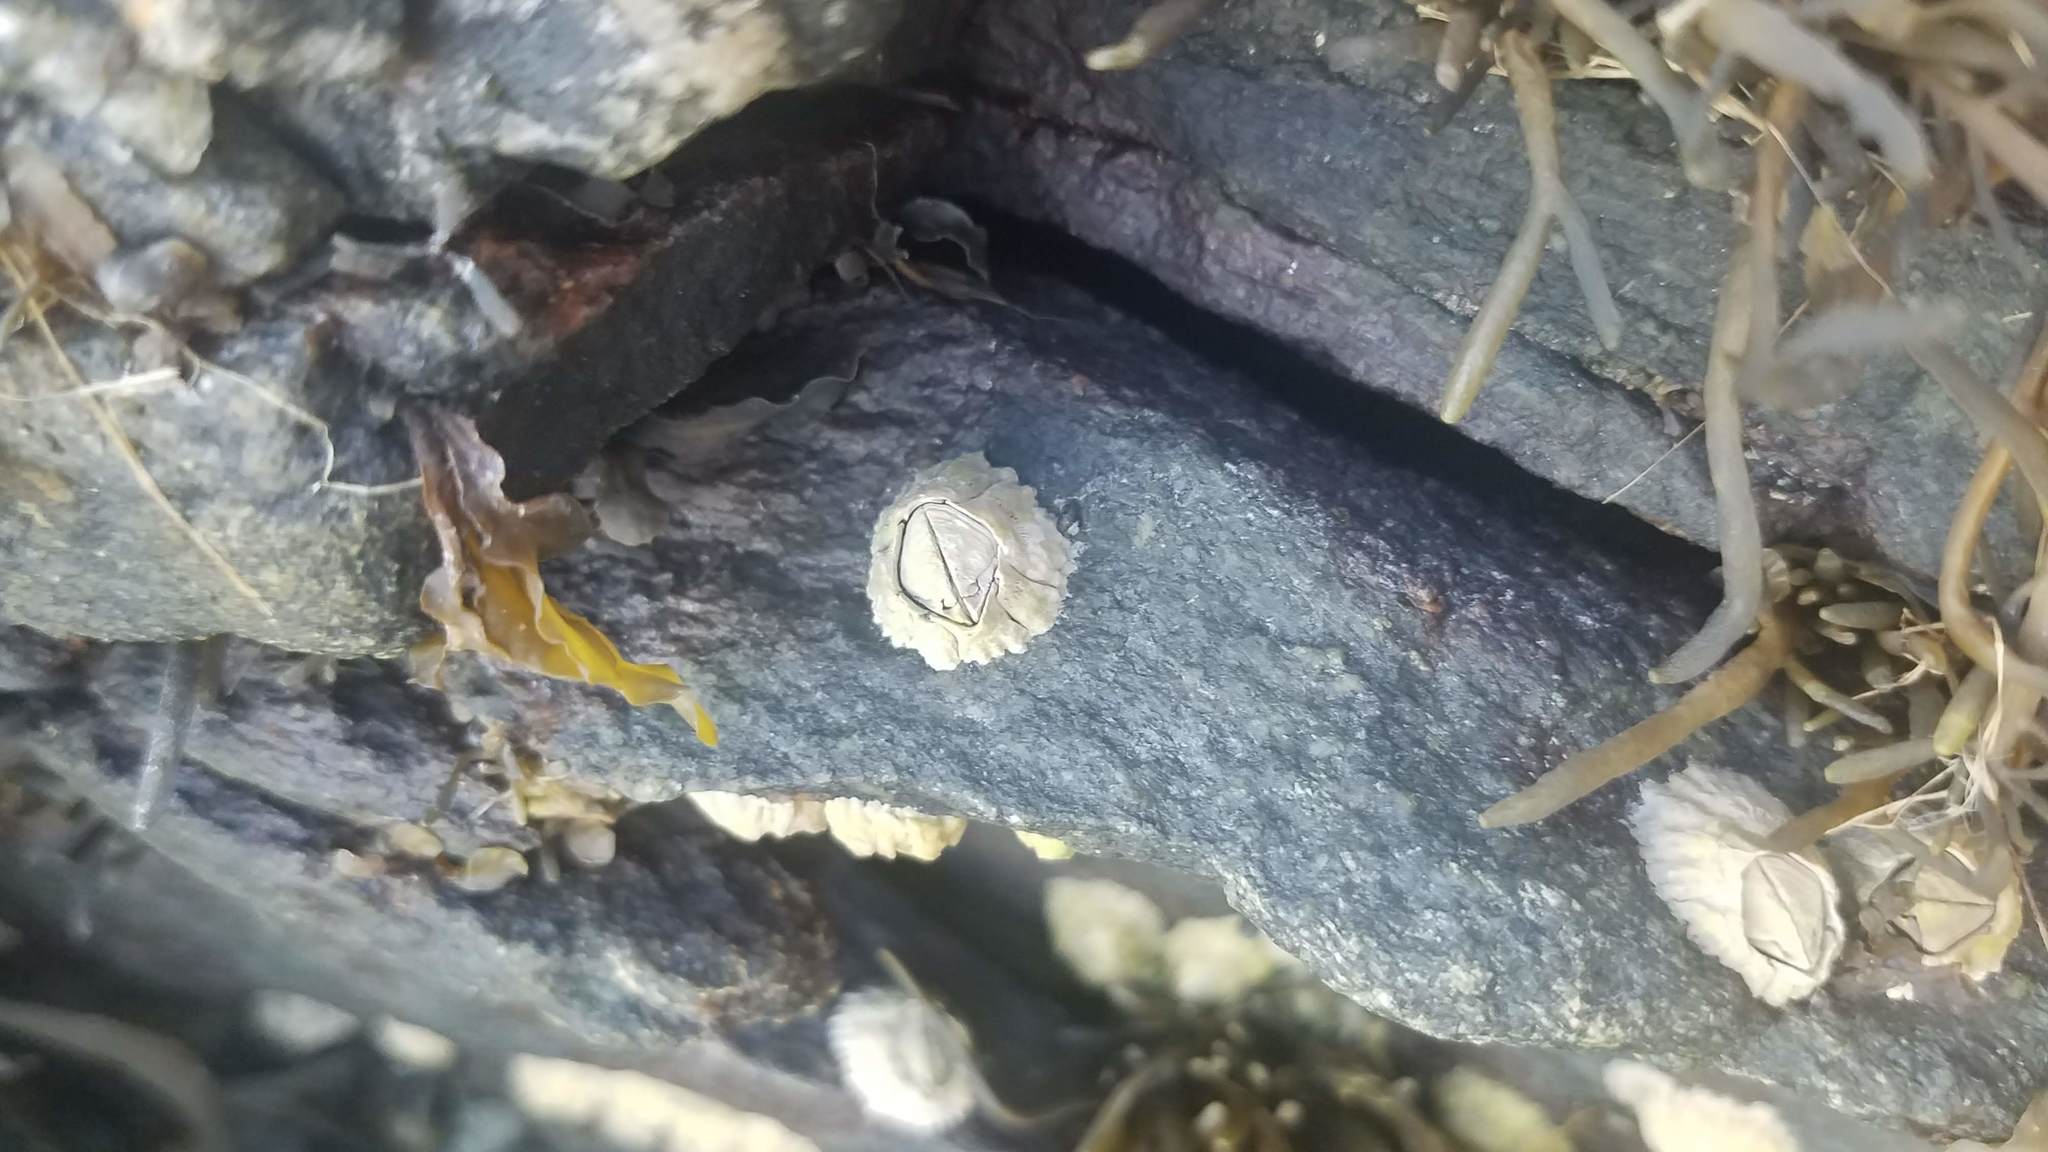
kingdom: Animalia
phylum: Arthropoda
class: Maxillopoda
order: Sessilia
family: Archaeobalanidae
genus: Semibalanus
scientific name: Semibalanus balanoides
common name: Acorn barnacle
